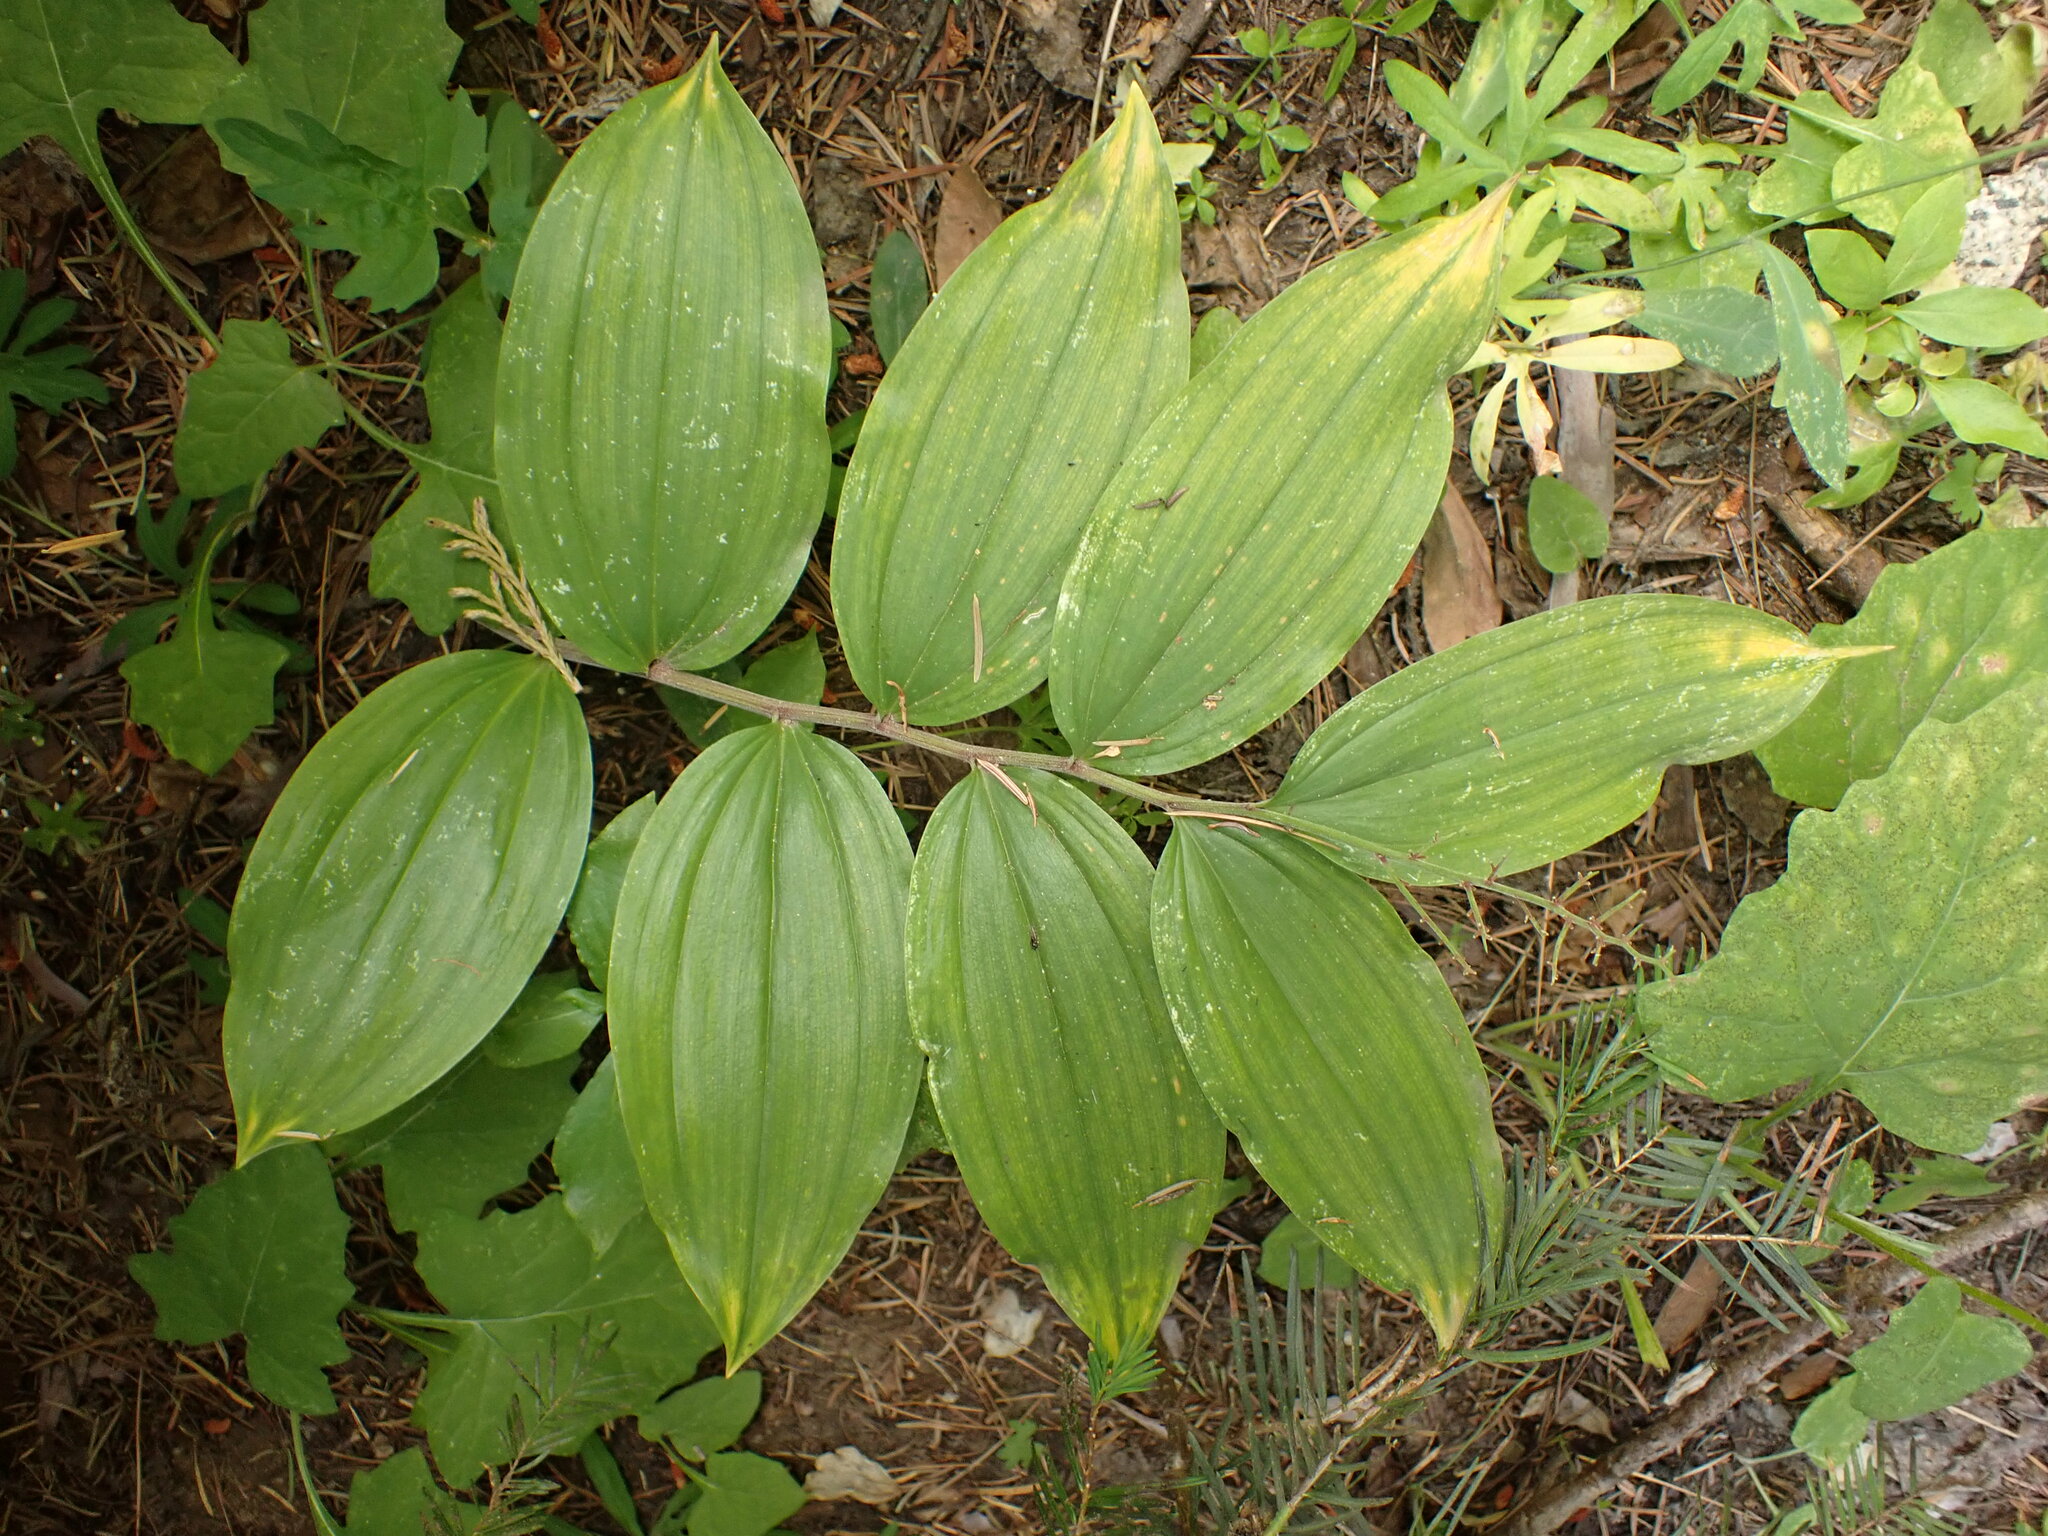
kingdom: Plantae
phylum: Tracheophyta
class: Liliopsida
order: Asparagales
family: Asparagaceae
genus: Maianthemum
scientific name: Maianthemum racemosum
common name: False spikenard
